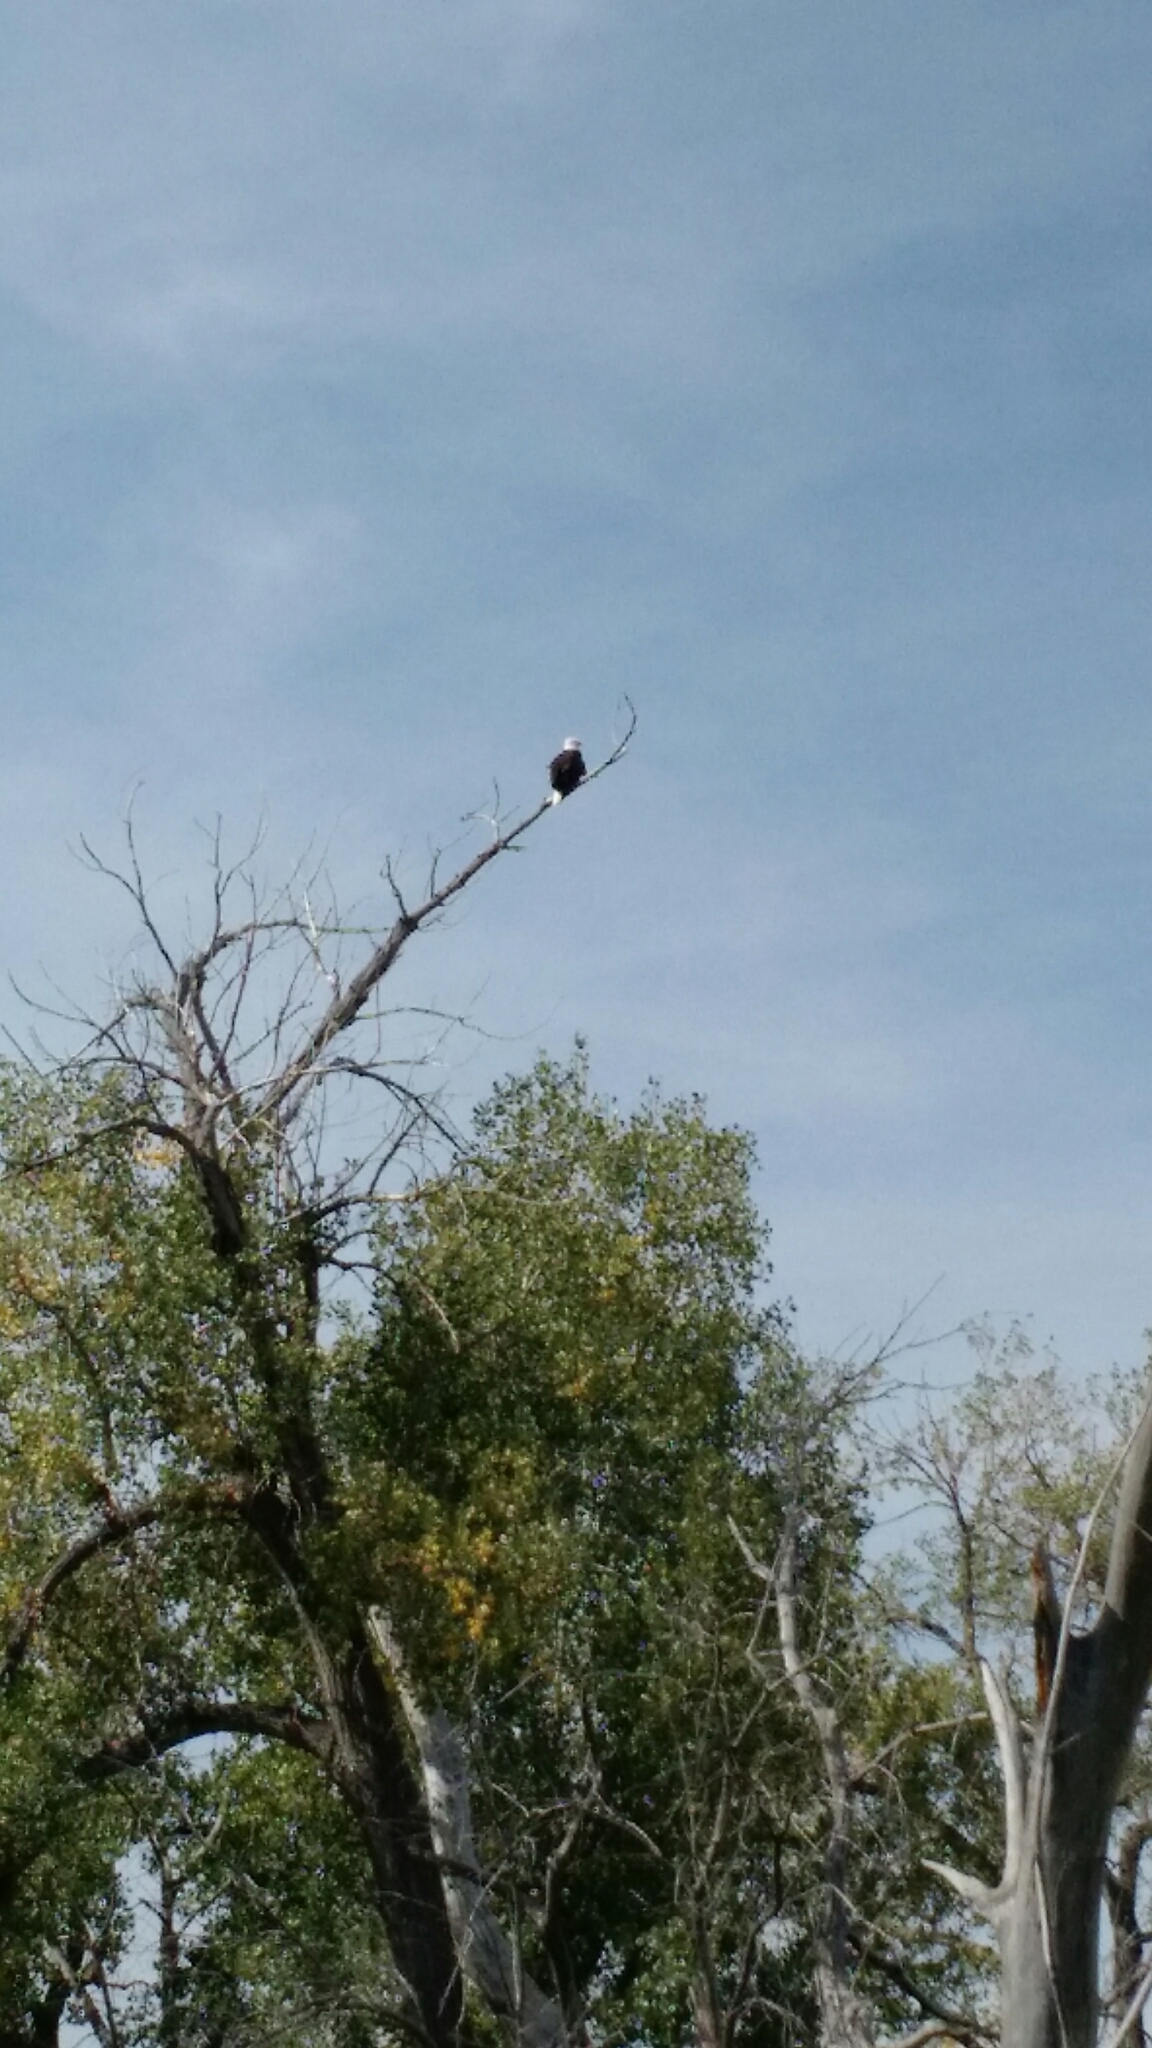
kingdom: Animalia
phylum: Chordata
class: Aves
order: Accipitriformes
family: Accipitridae
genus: Haliaeetus
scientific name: Haliaeetus leucocephalus
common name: Bald eagle
